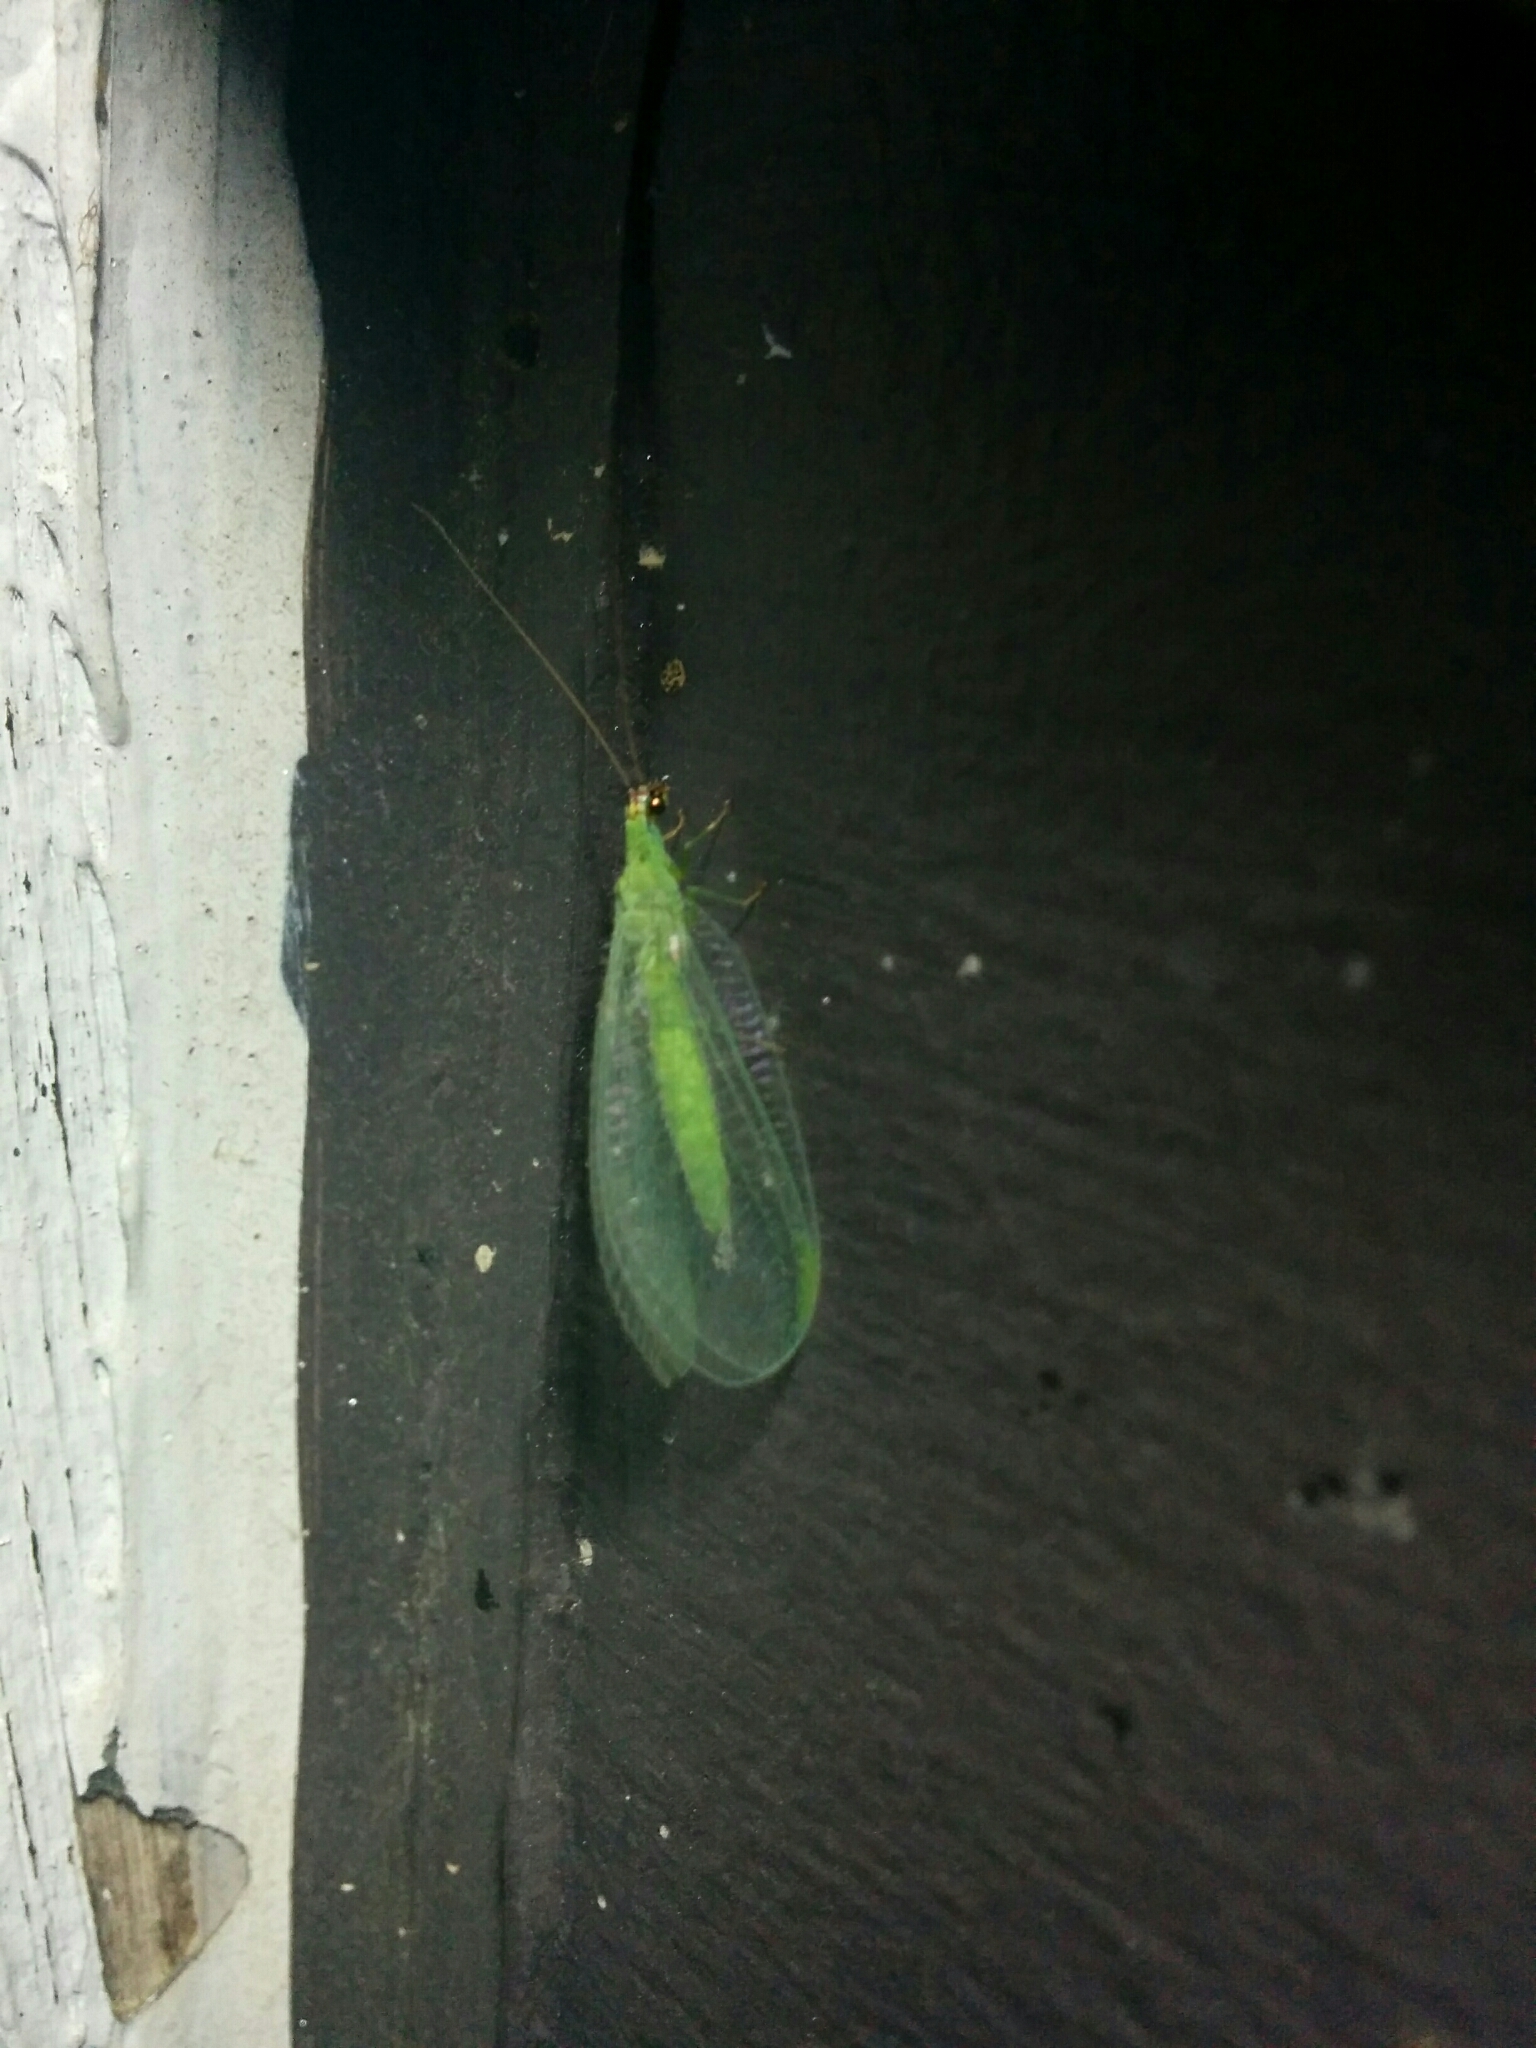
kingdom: Animalia
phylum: Arthropoda
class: Insecta
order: Neuroptera
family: Chrysopidae
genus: Chrysopa
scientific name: Chrysopa oculata
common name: Golden-eyed lacewing
